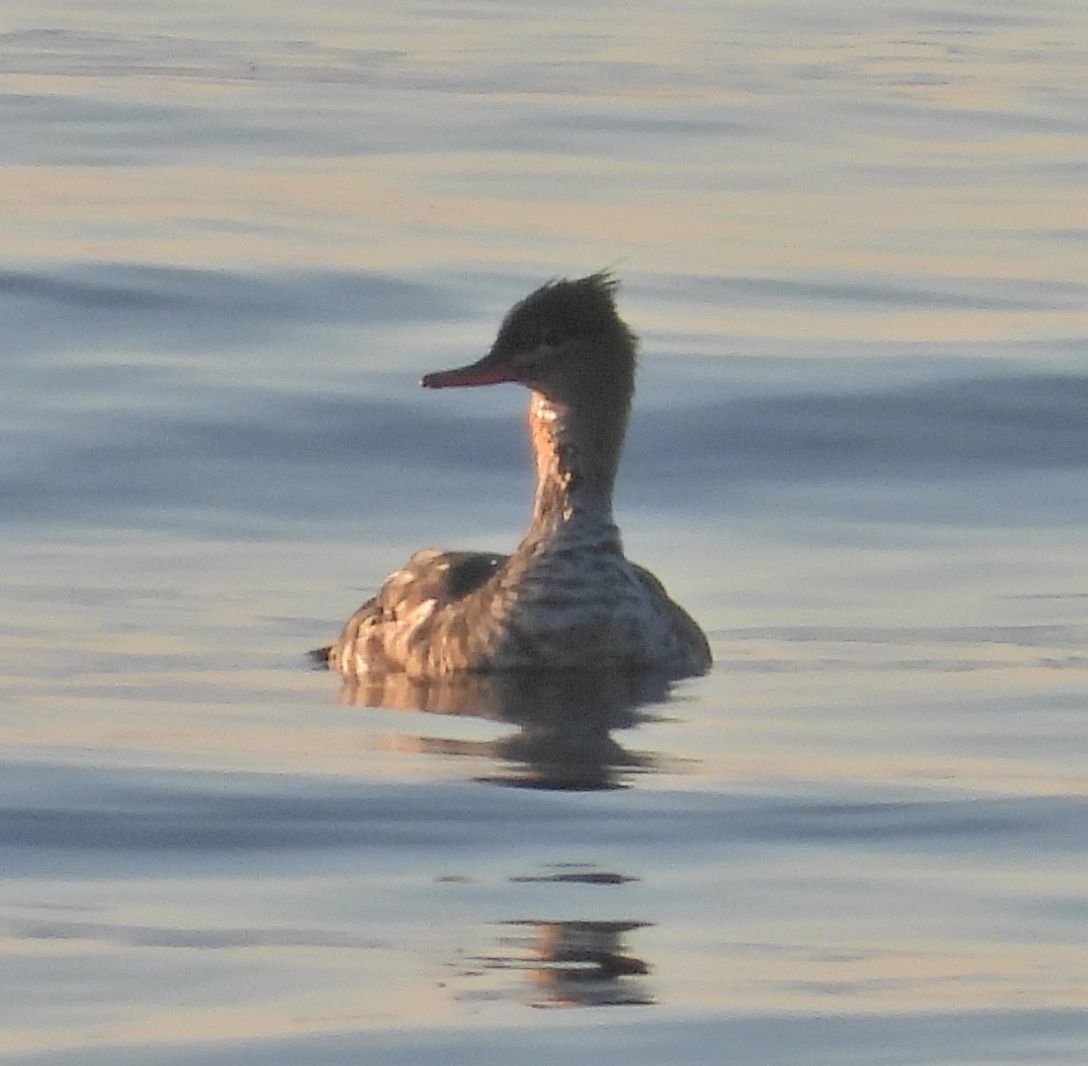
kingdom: Animalia
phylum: Chordata
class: Aves
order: Anseriformes
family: Anatidae
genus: Mergus
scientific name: Mergus serrator
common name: Red-breasted merganser
